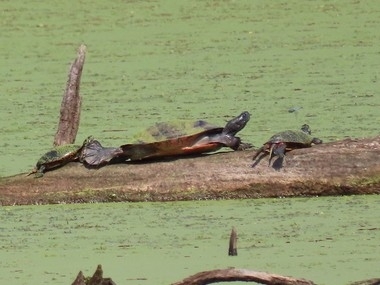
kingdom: Animalia
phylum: Chordata
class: Testudines
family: Emydidae
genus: Pseudemys
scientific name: Pseudemys rubriventris
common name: American red-bellied turtle
